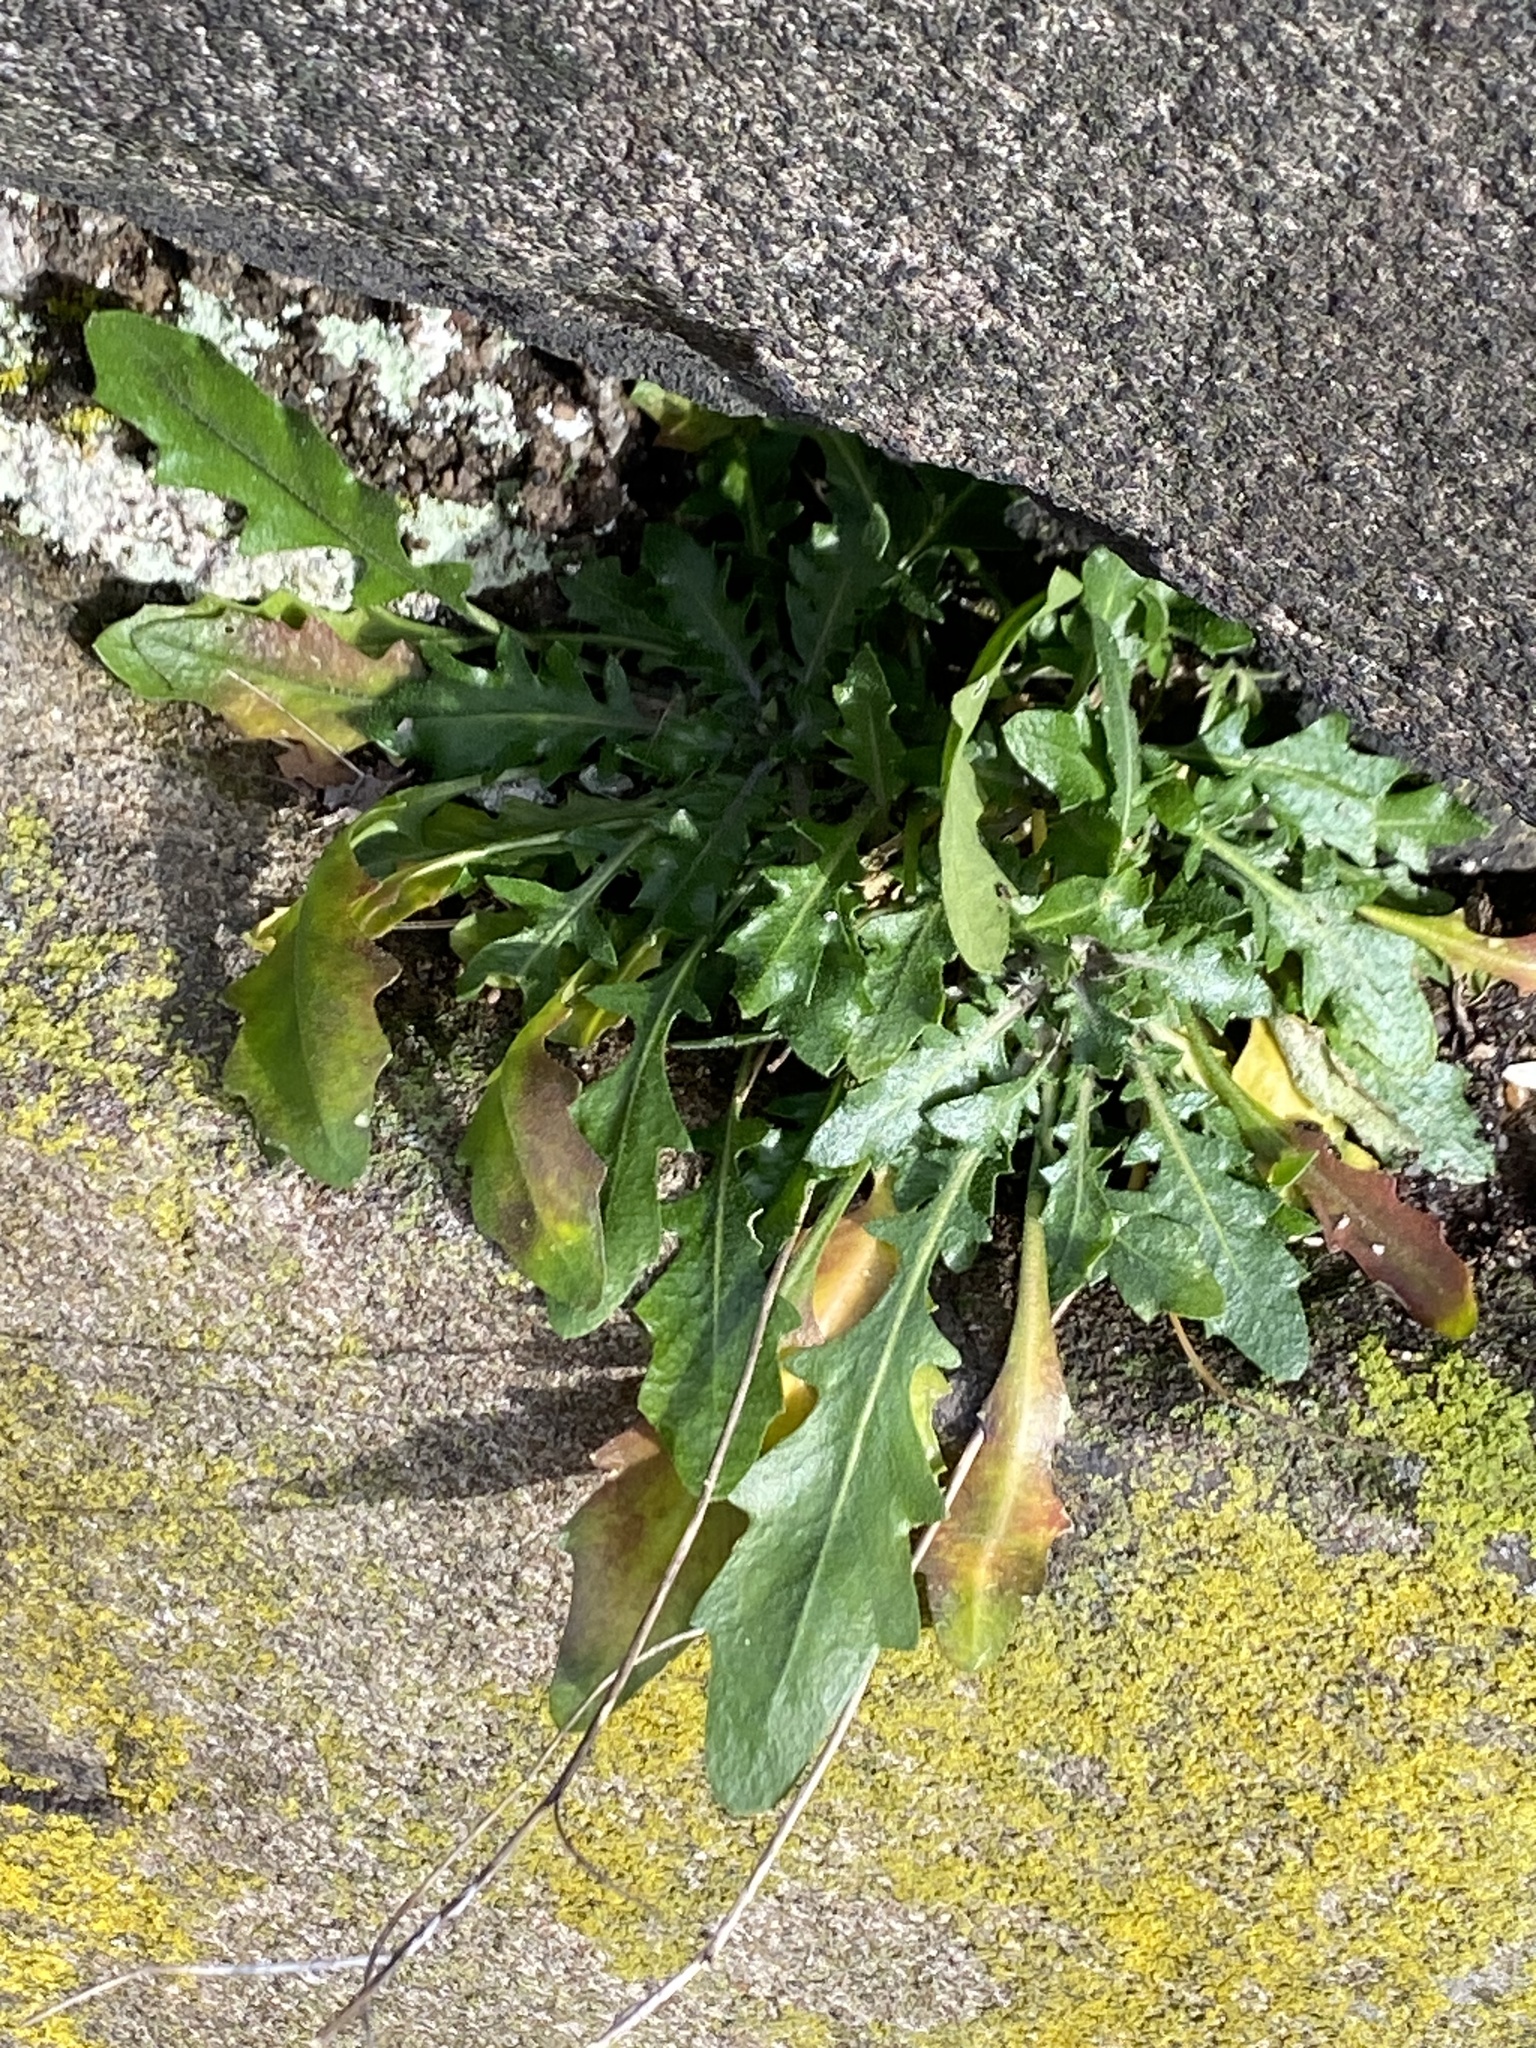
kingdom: Plantae
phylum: Tracheophyta
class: Magnoliopsida
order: Brassicales
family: Brassicaceae
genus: Arabidopsis
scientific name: Arabidopsis lyrata
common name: Lyrate rockcress
